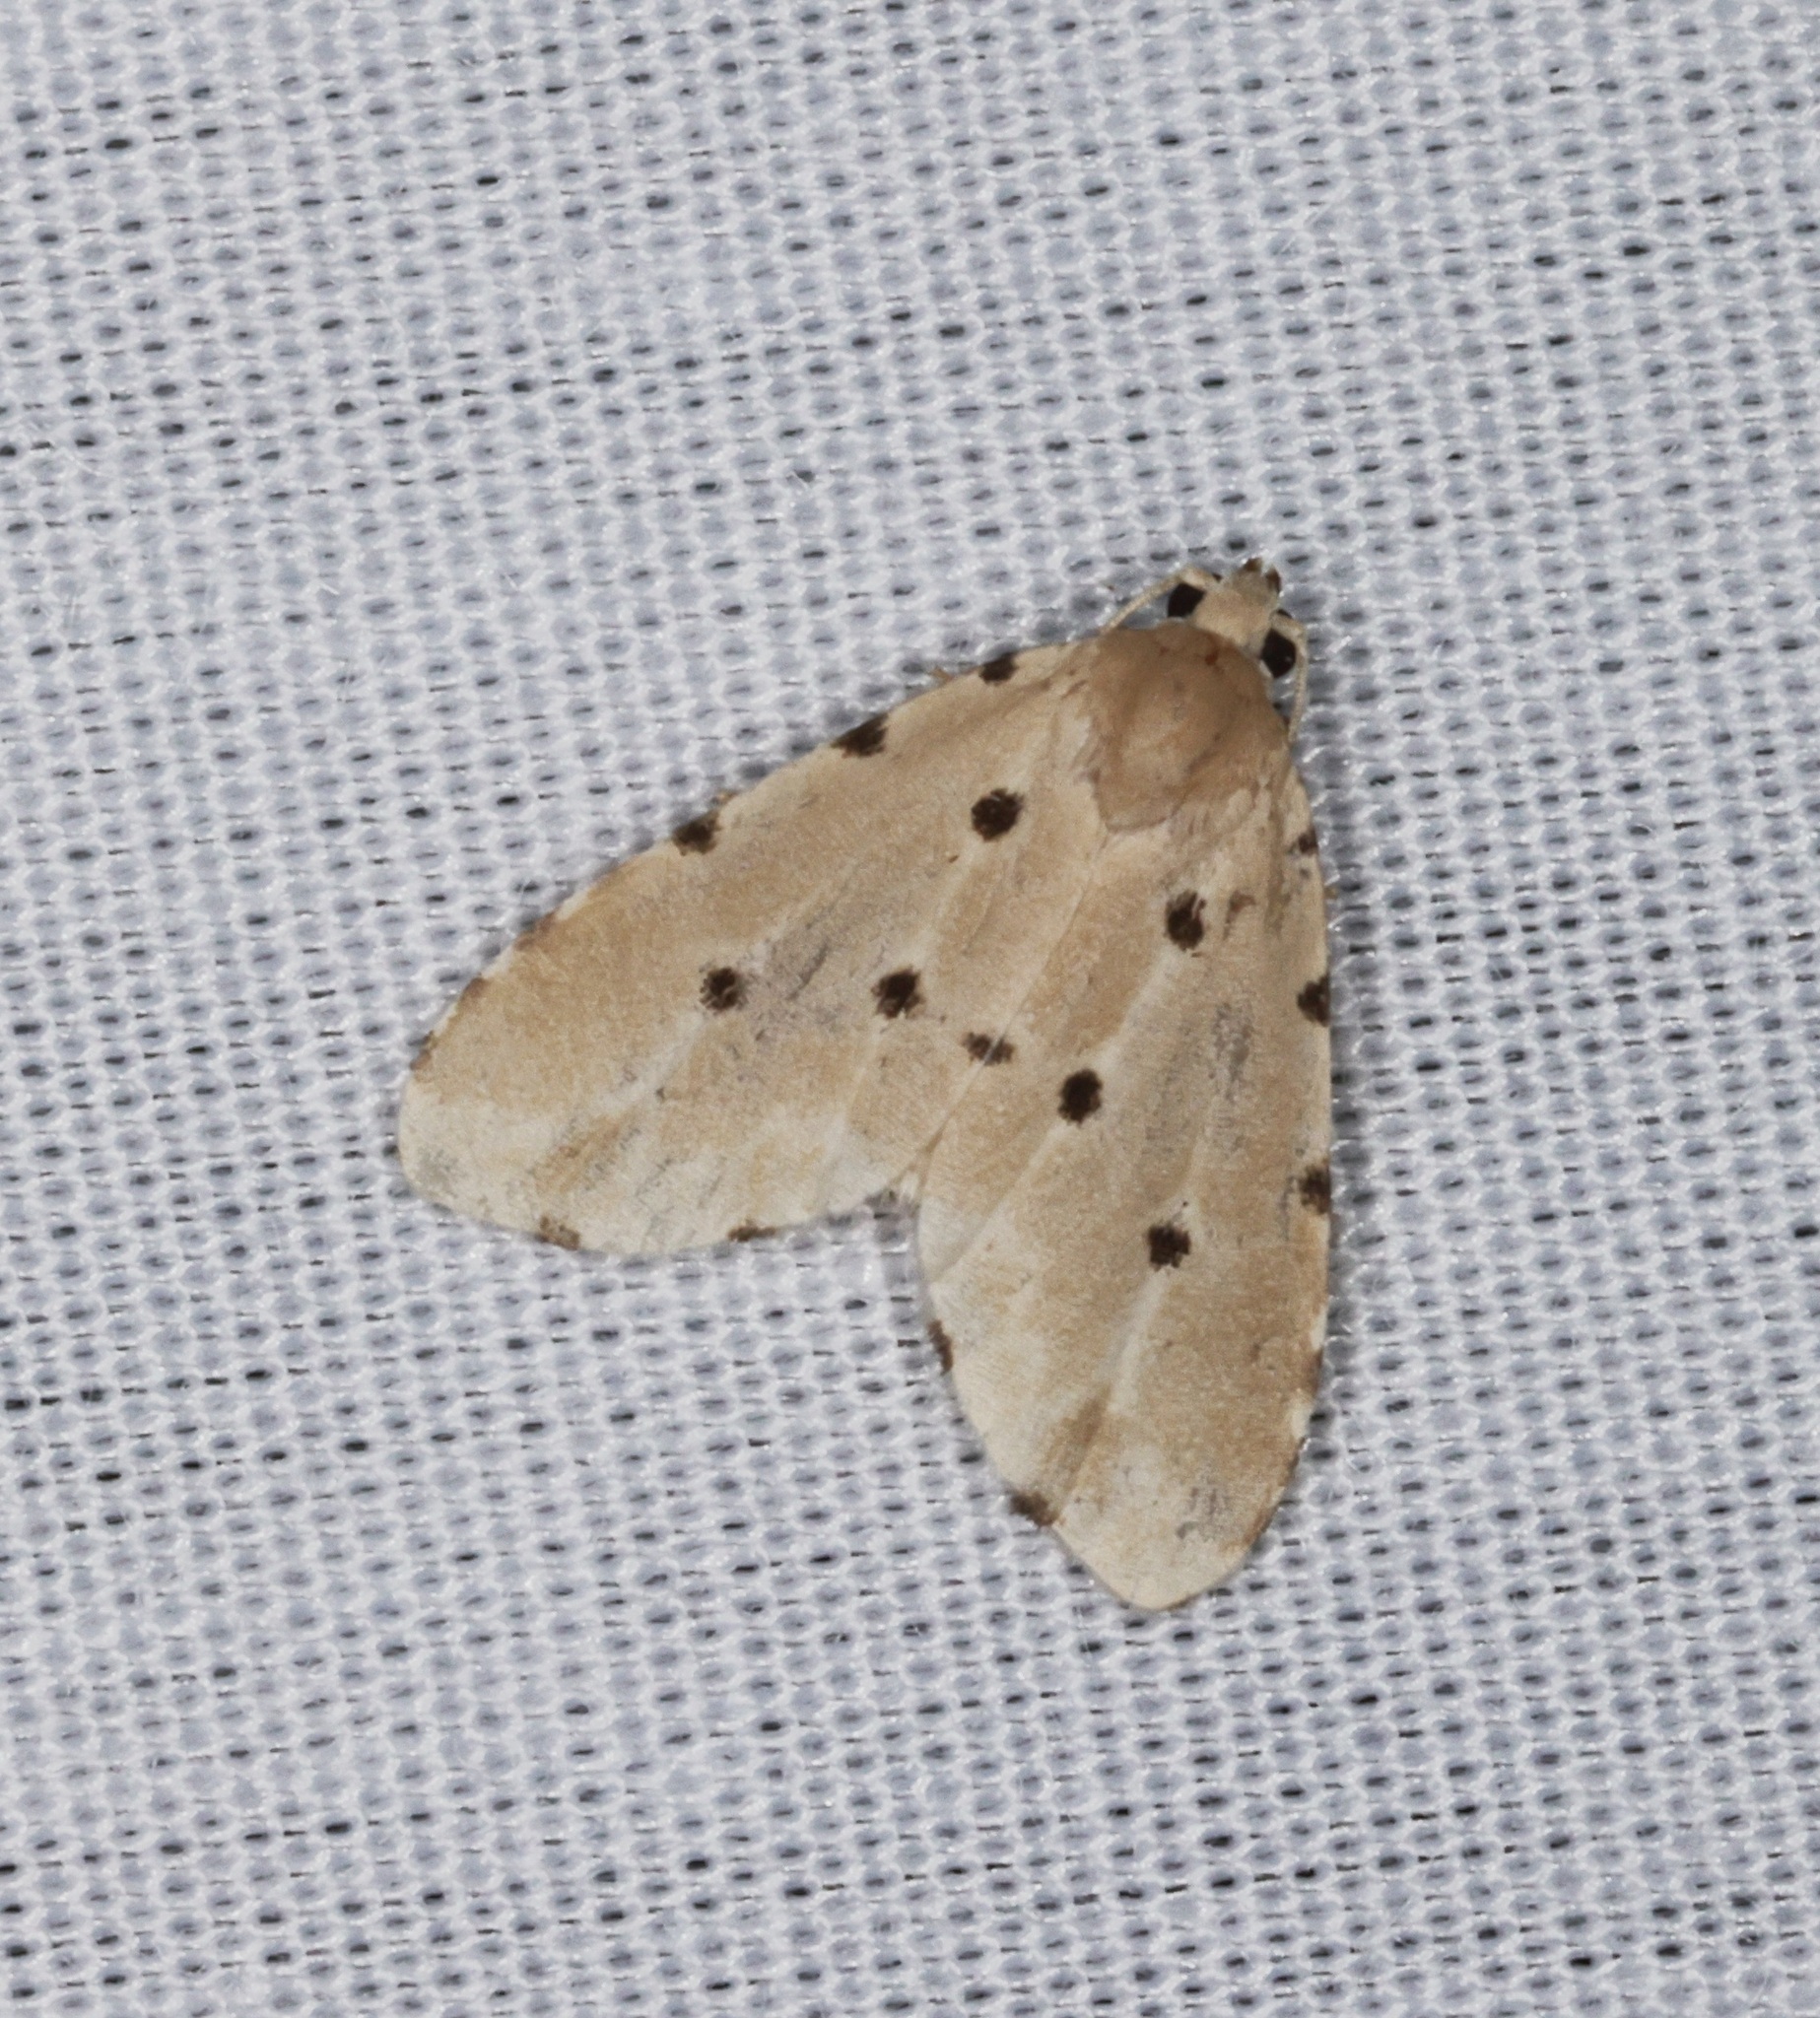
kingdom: Animalia
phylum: Arthropoda
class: Insecta
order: Lepidoptera
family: Noctuidae
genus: Metaemene
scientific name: Metaemene atrigutta
